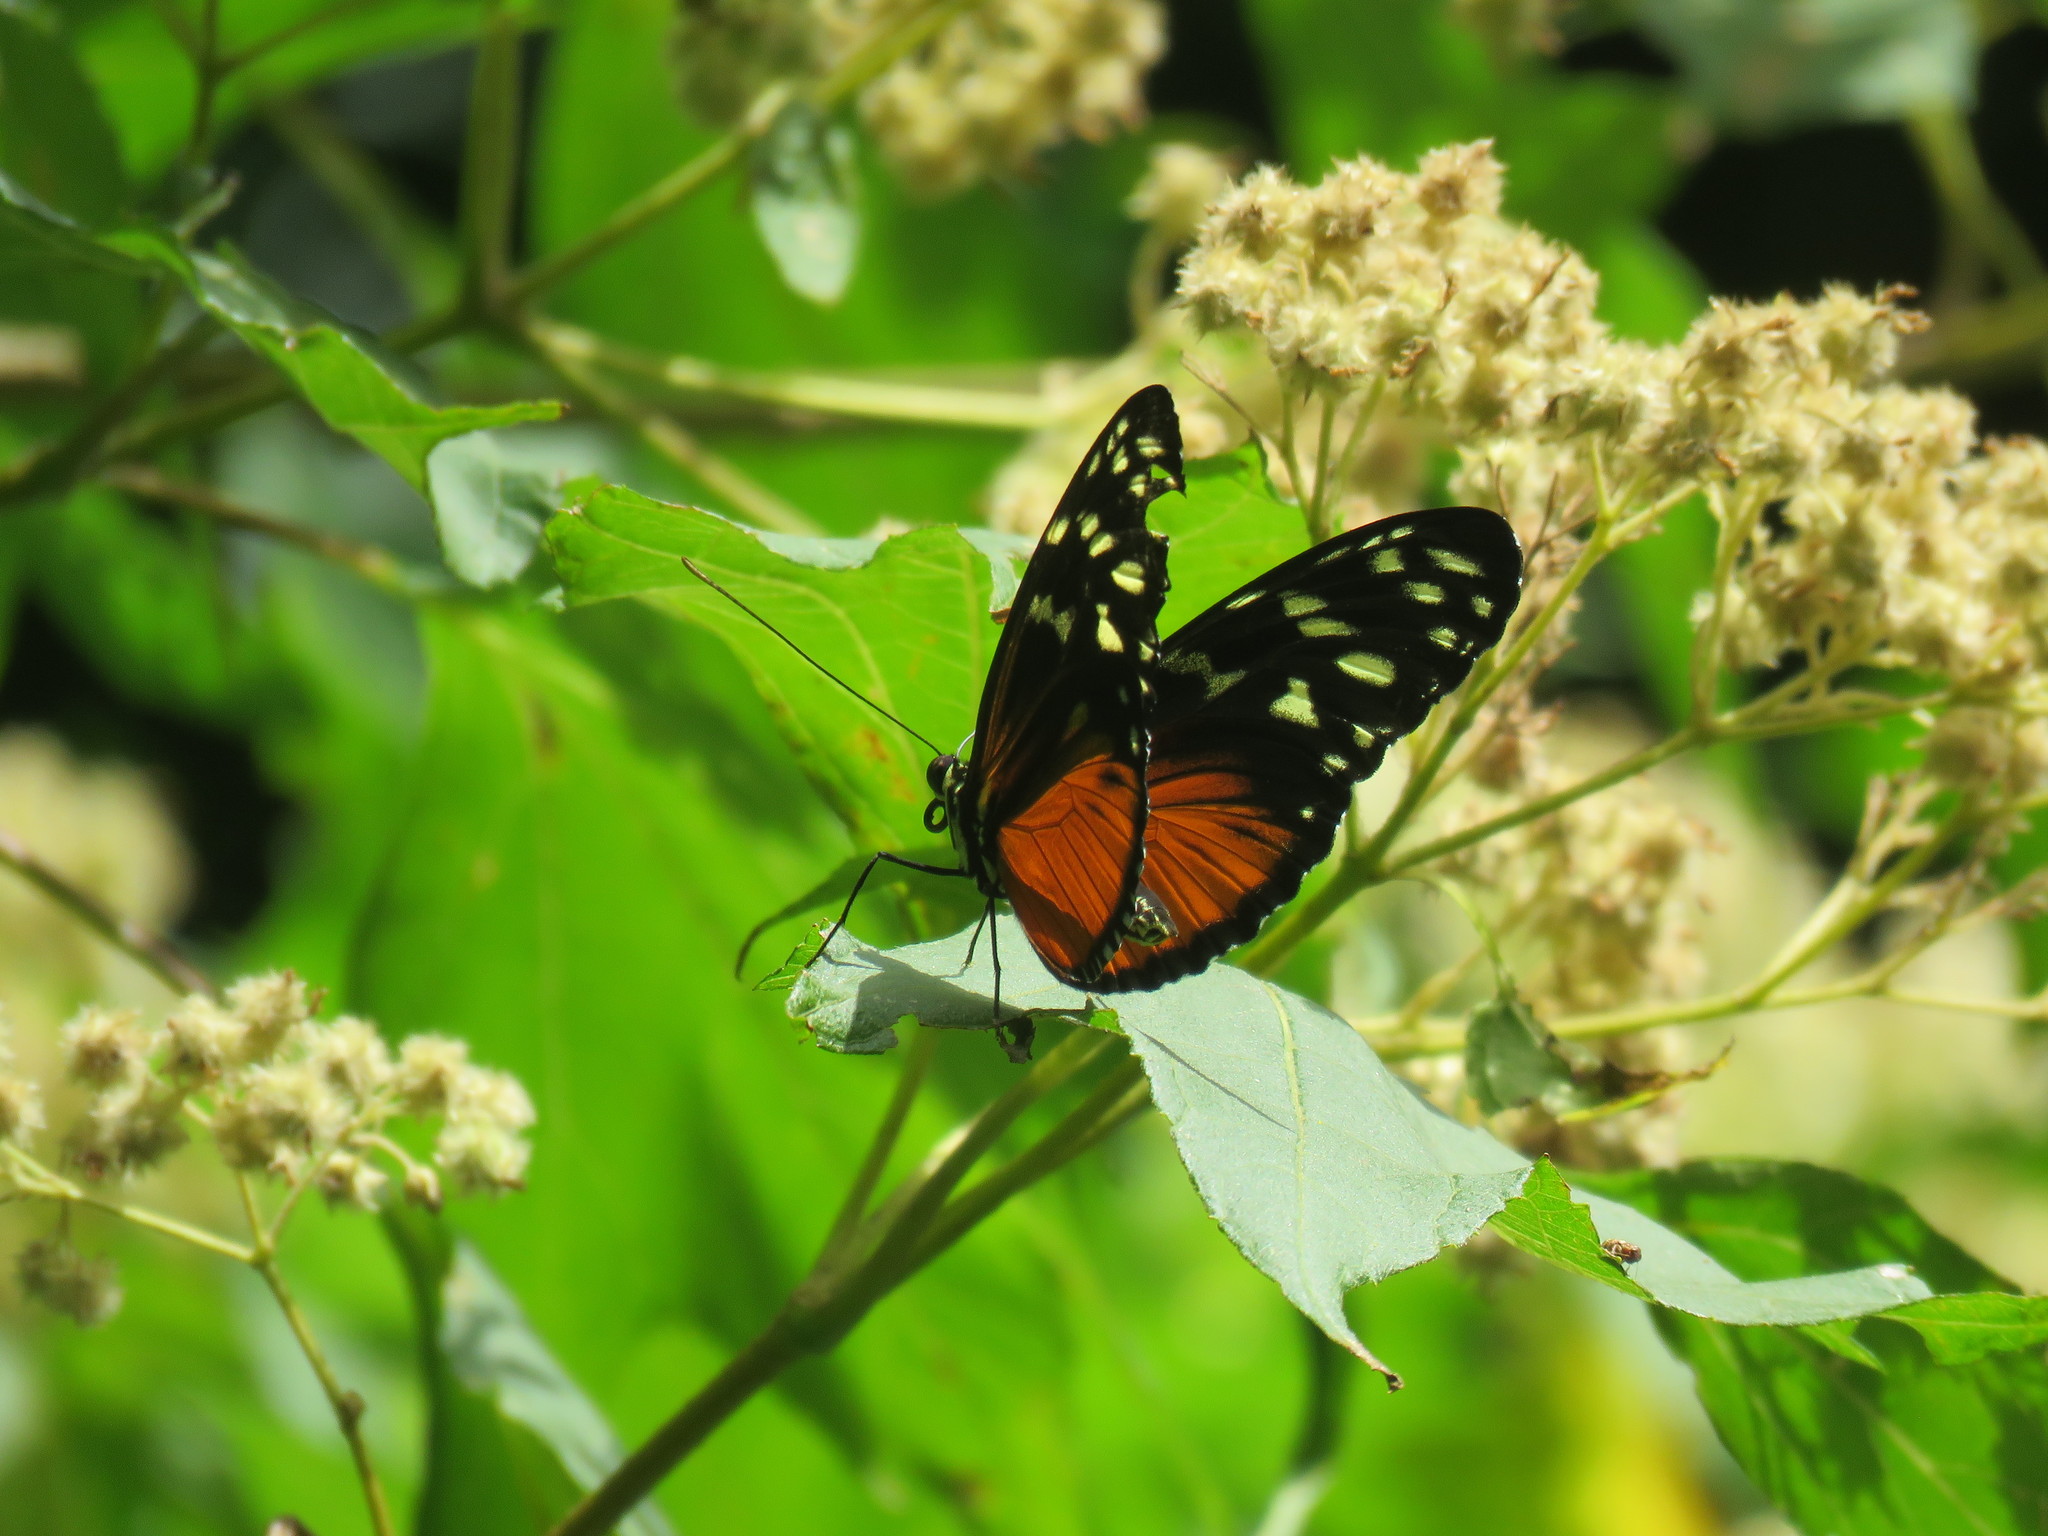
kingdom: Animalia
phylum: Arthropoda
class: Insecta
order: Lepidoptera
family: Nymphalidae
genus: Heliconius
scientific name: Heliconius hecale
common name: Tiger longwing
